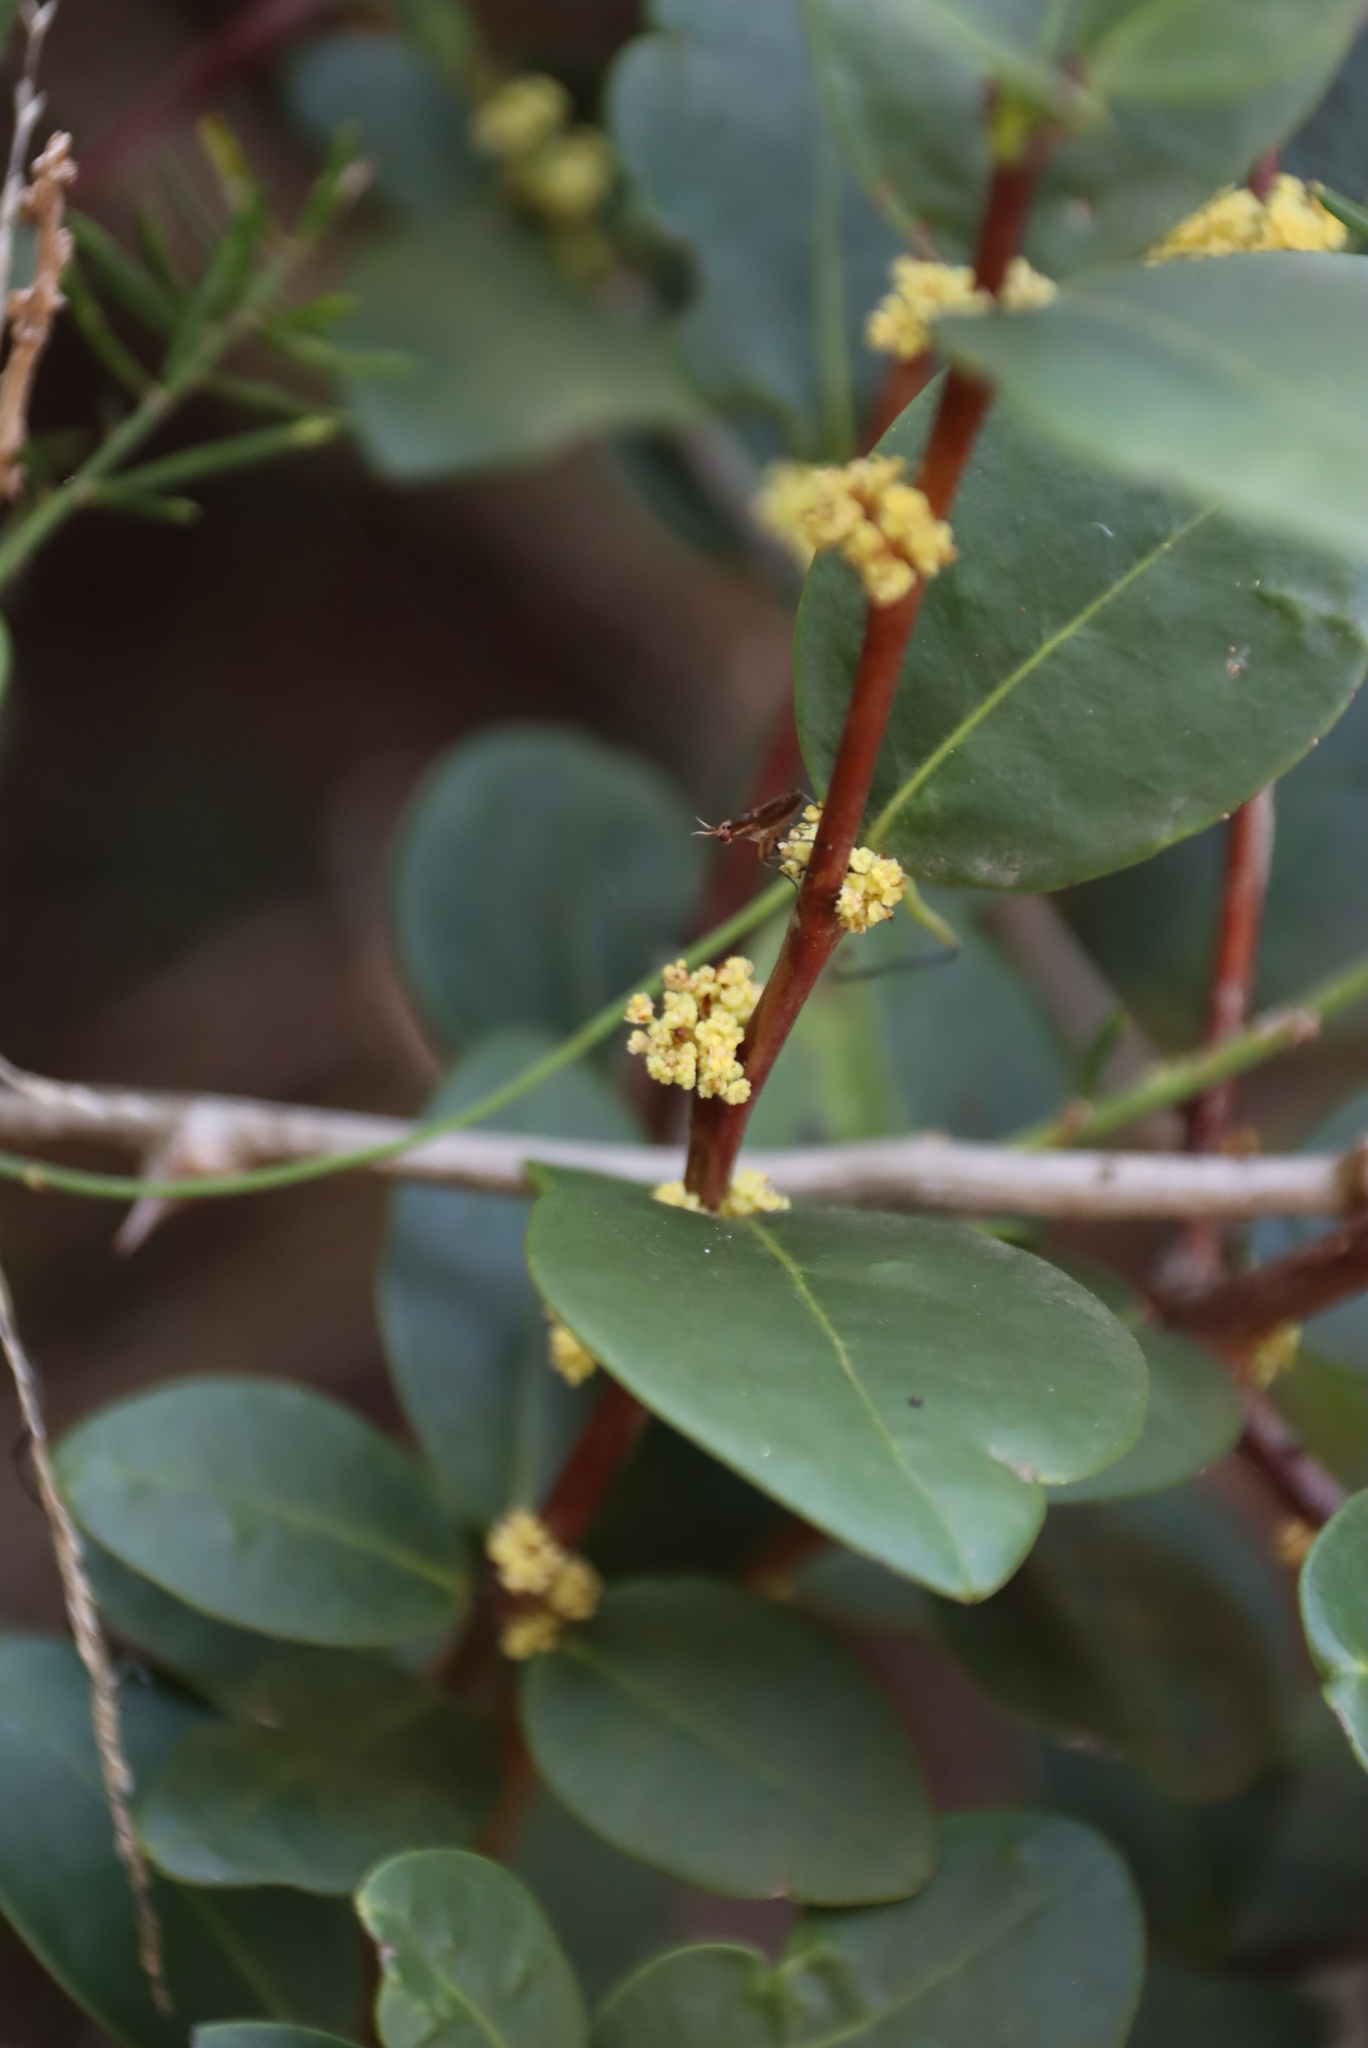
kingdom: Plantae
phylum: Tracheophyta
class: Magnoliopsida
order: Celastrales
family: Celastraceae
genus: Maurocenia
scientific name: Maurocenia frangula
